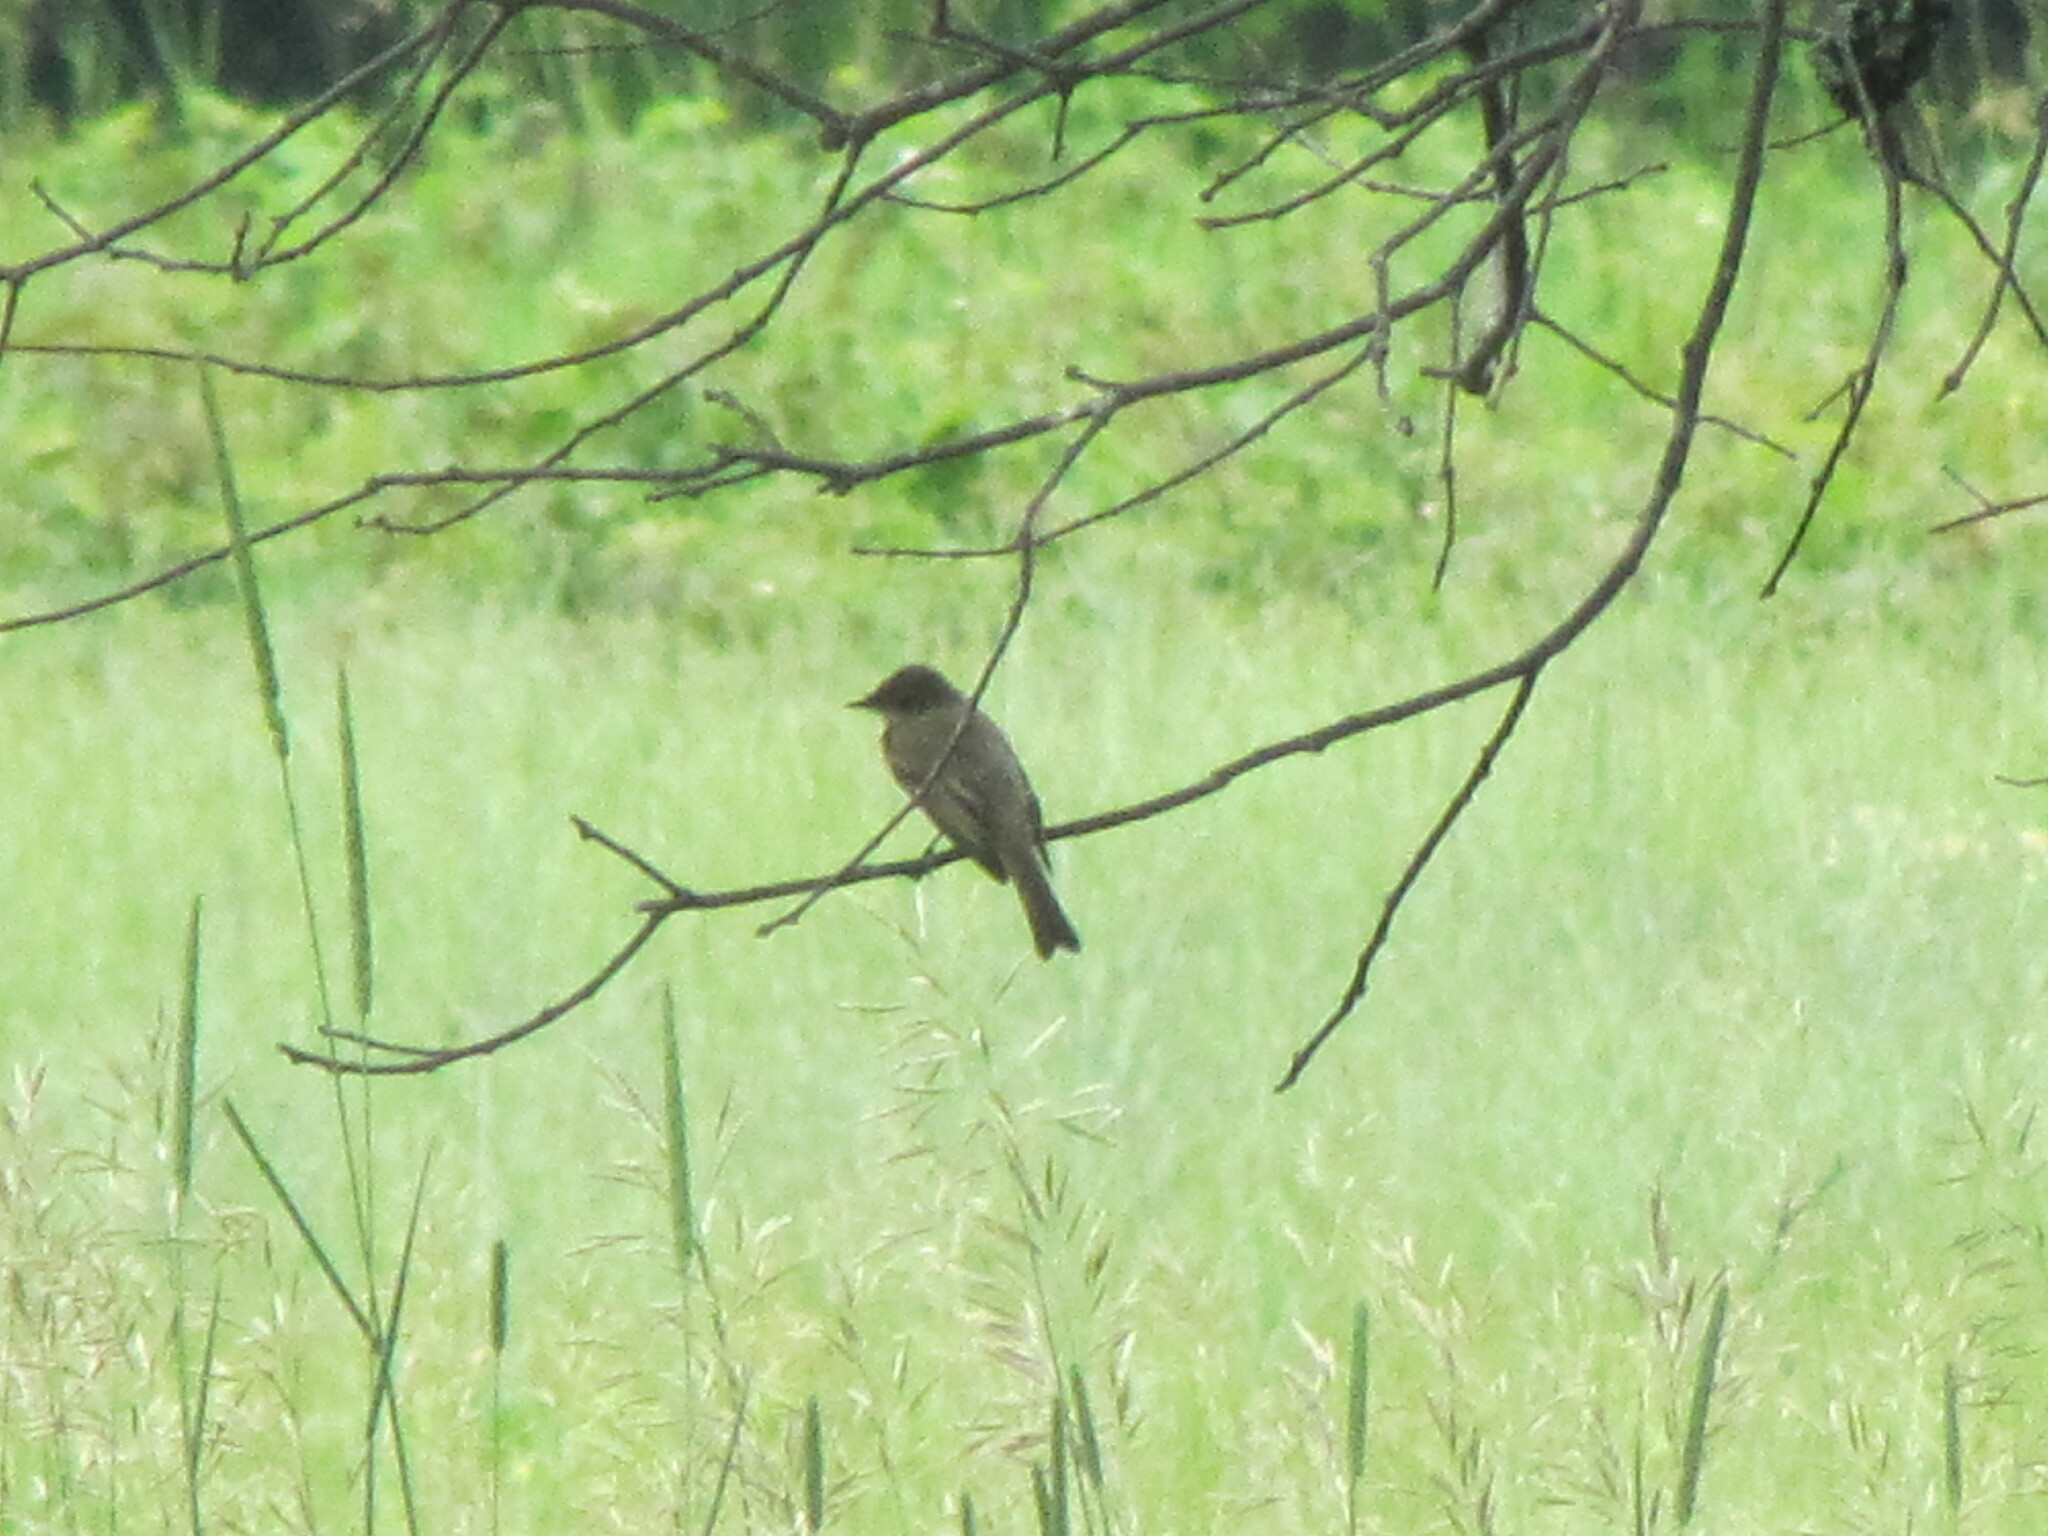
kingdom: Animalia
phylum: Chordata
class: Aves
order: Passeriformes
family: Tyrannidae
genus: Sayornis
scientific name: Sayornis phoebe
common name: Eastern phoebe
